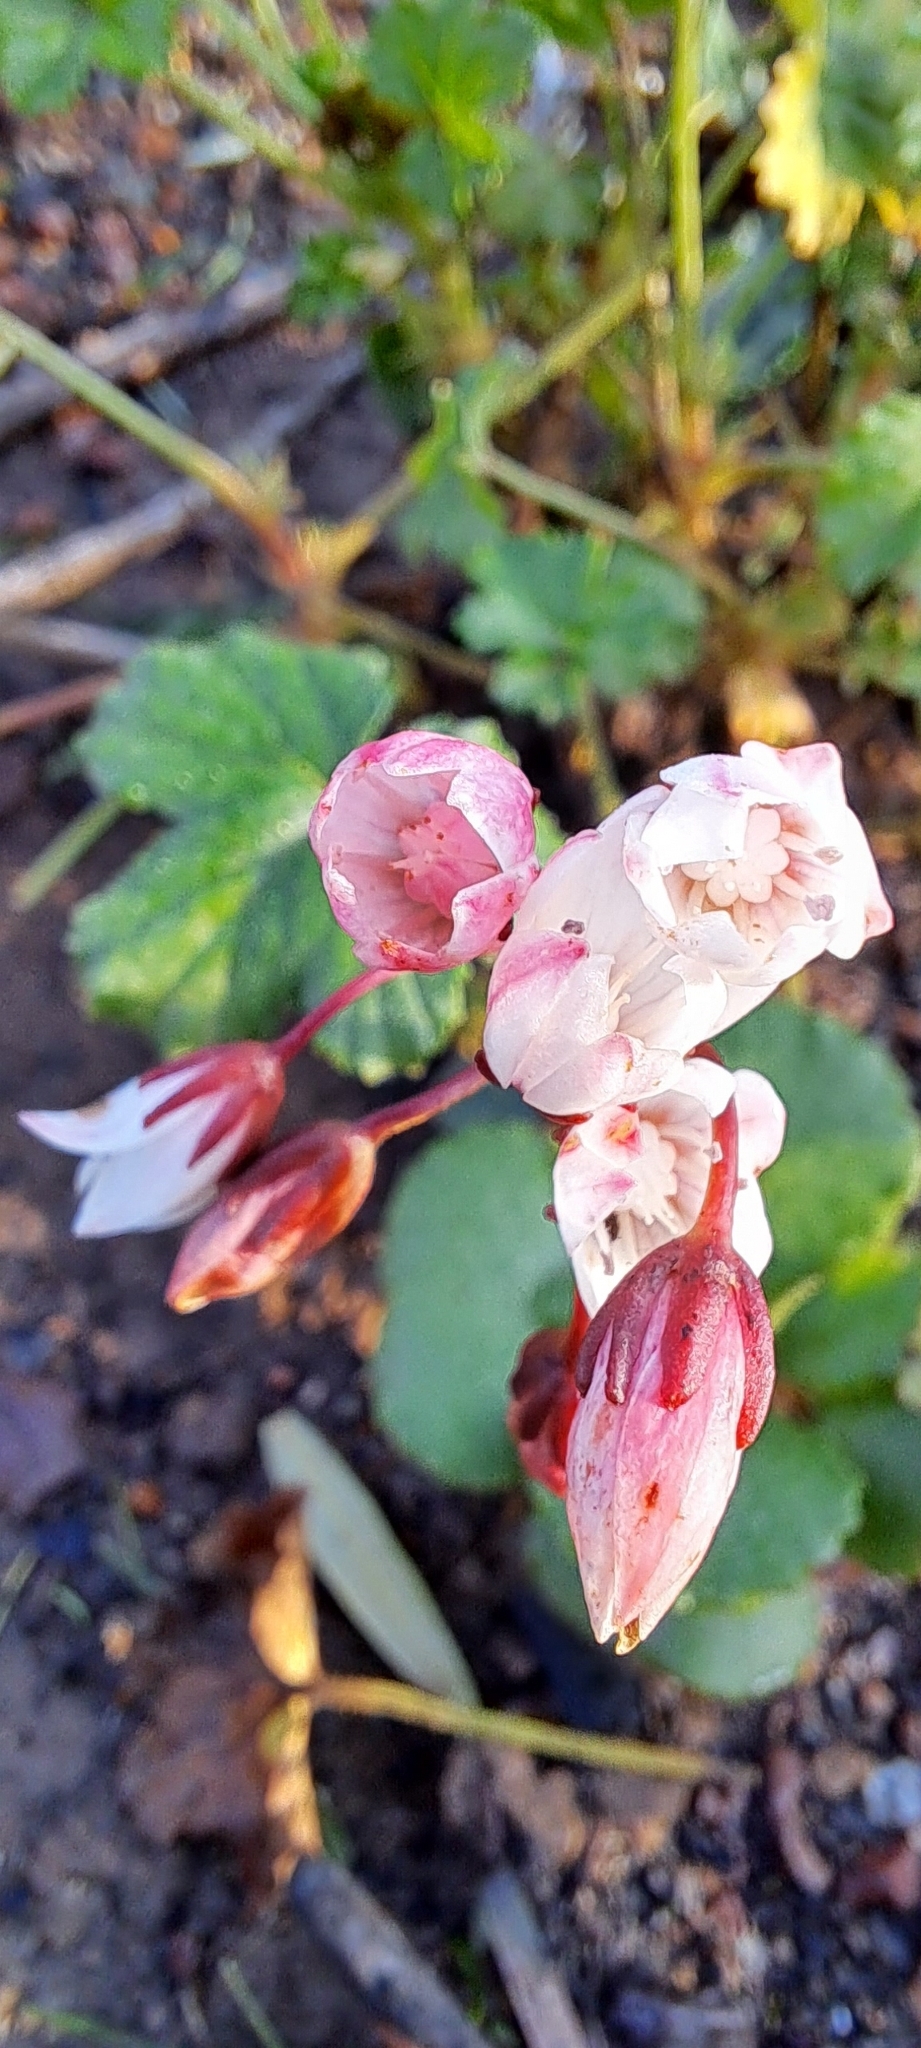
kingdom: Plantae
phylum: Tracheophyta
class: Magnoliopsida
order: Saxifragales
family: Crassulaceae
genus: Crassula
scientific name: Crassula capensis
